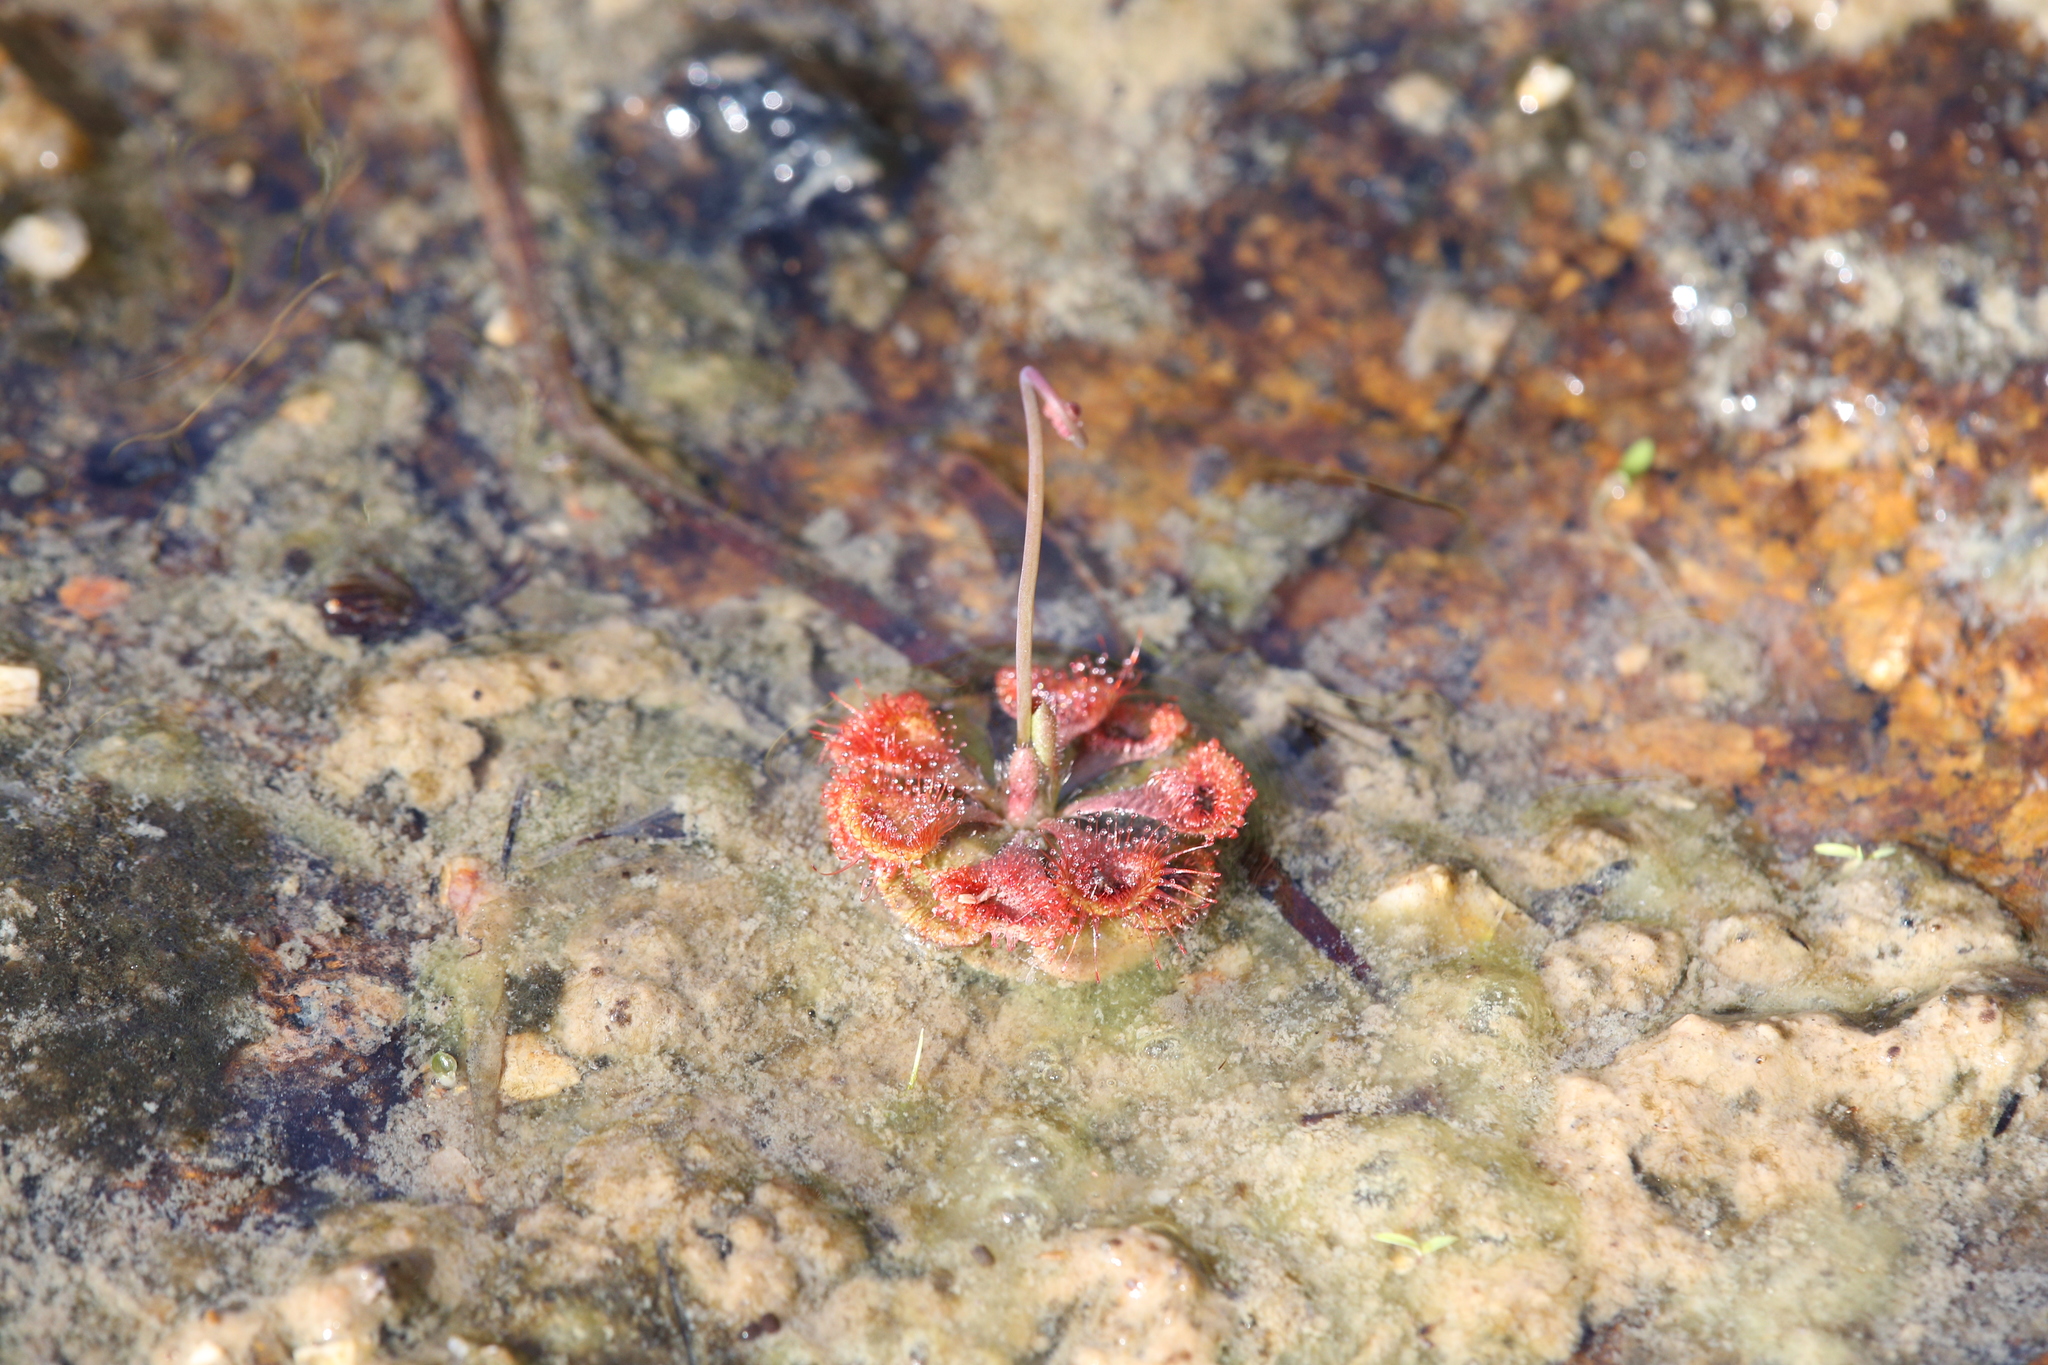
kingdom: Plantae
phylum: Tracheophyta
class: Magnoliopsida
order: Caryophyllales
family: Droseraceae
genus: Drosera
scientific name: Drosera spatulata
